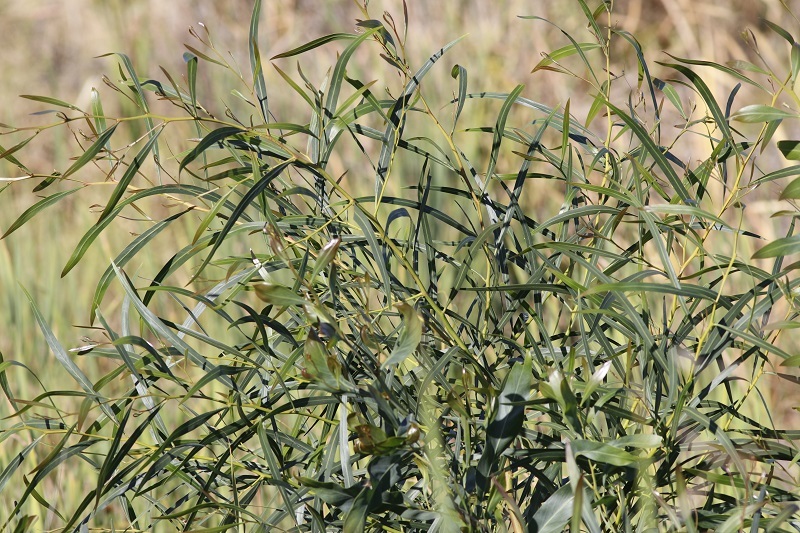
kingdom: Plantae
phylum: Tracheophyta
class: Magnoliopsida
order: Fabales
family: Fabaceae
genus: Acacia
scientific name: Acacia saligna
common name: Orange wattle
